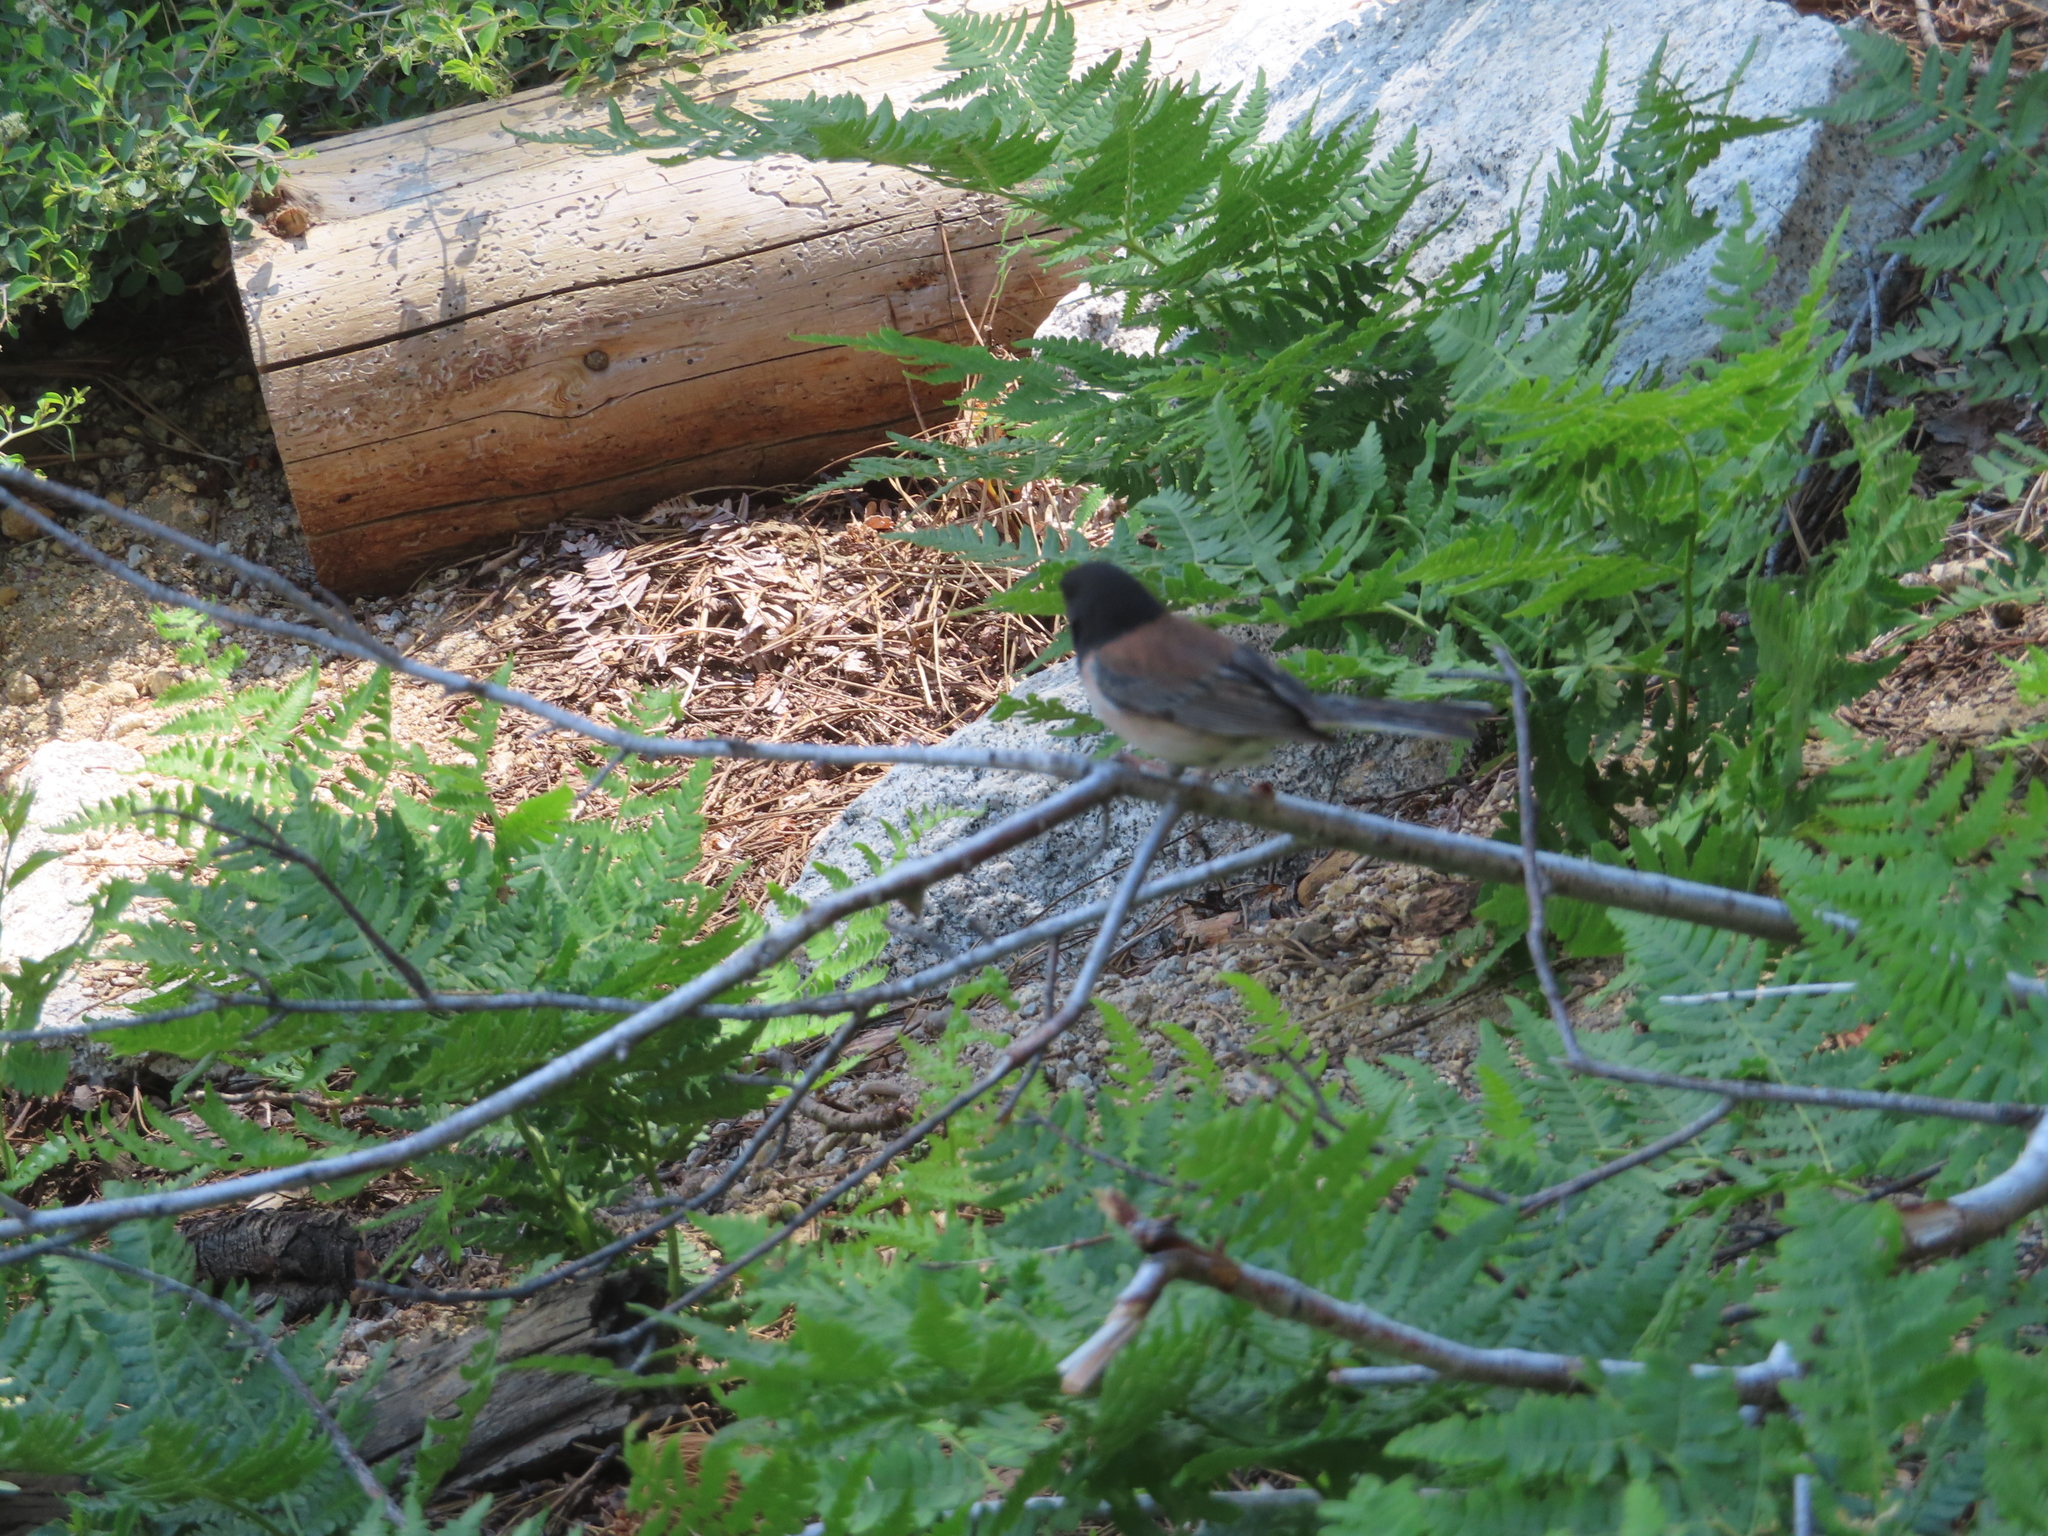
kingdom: Animalia
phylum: Chordata
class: Aves
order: Passeriformes
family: Passerellidae
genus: Junco
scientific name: Junco hyemalis
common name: Dark-eyed junco
